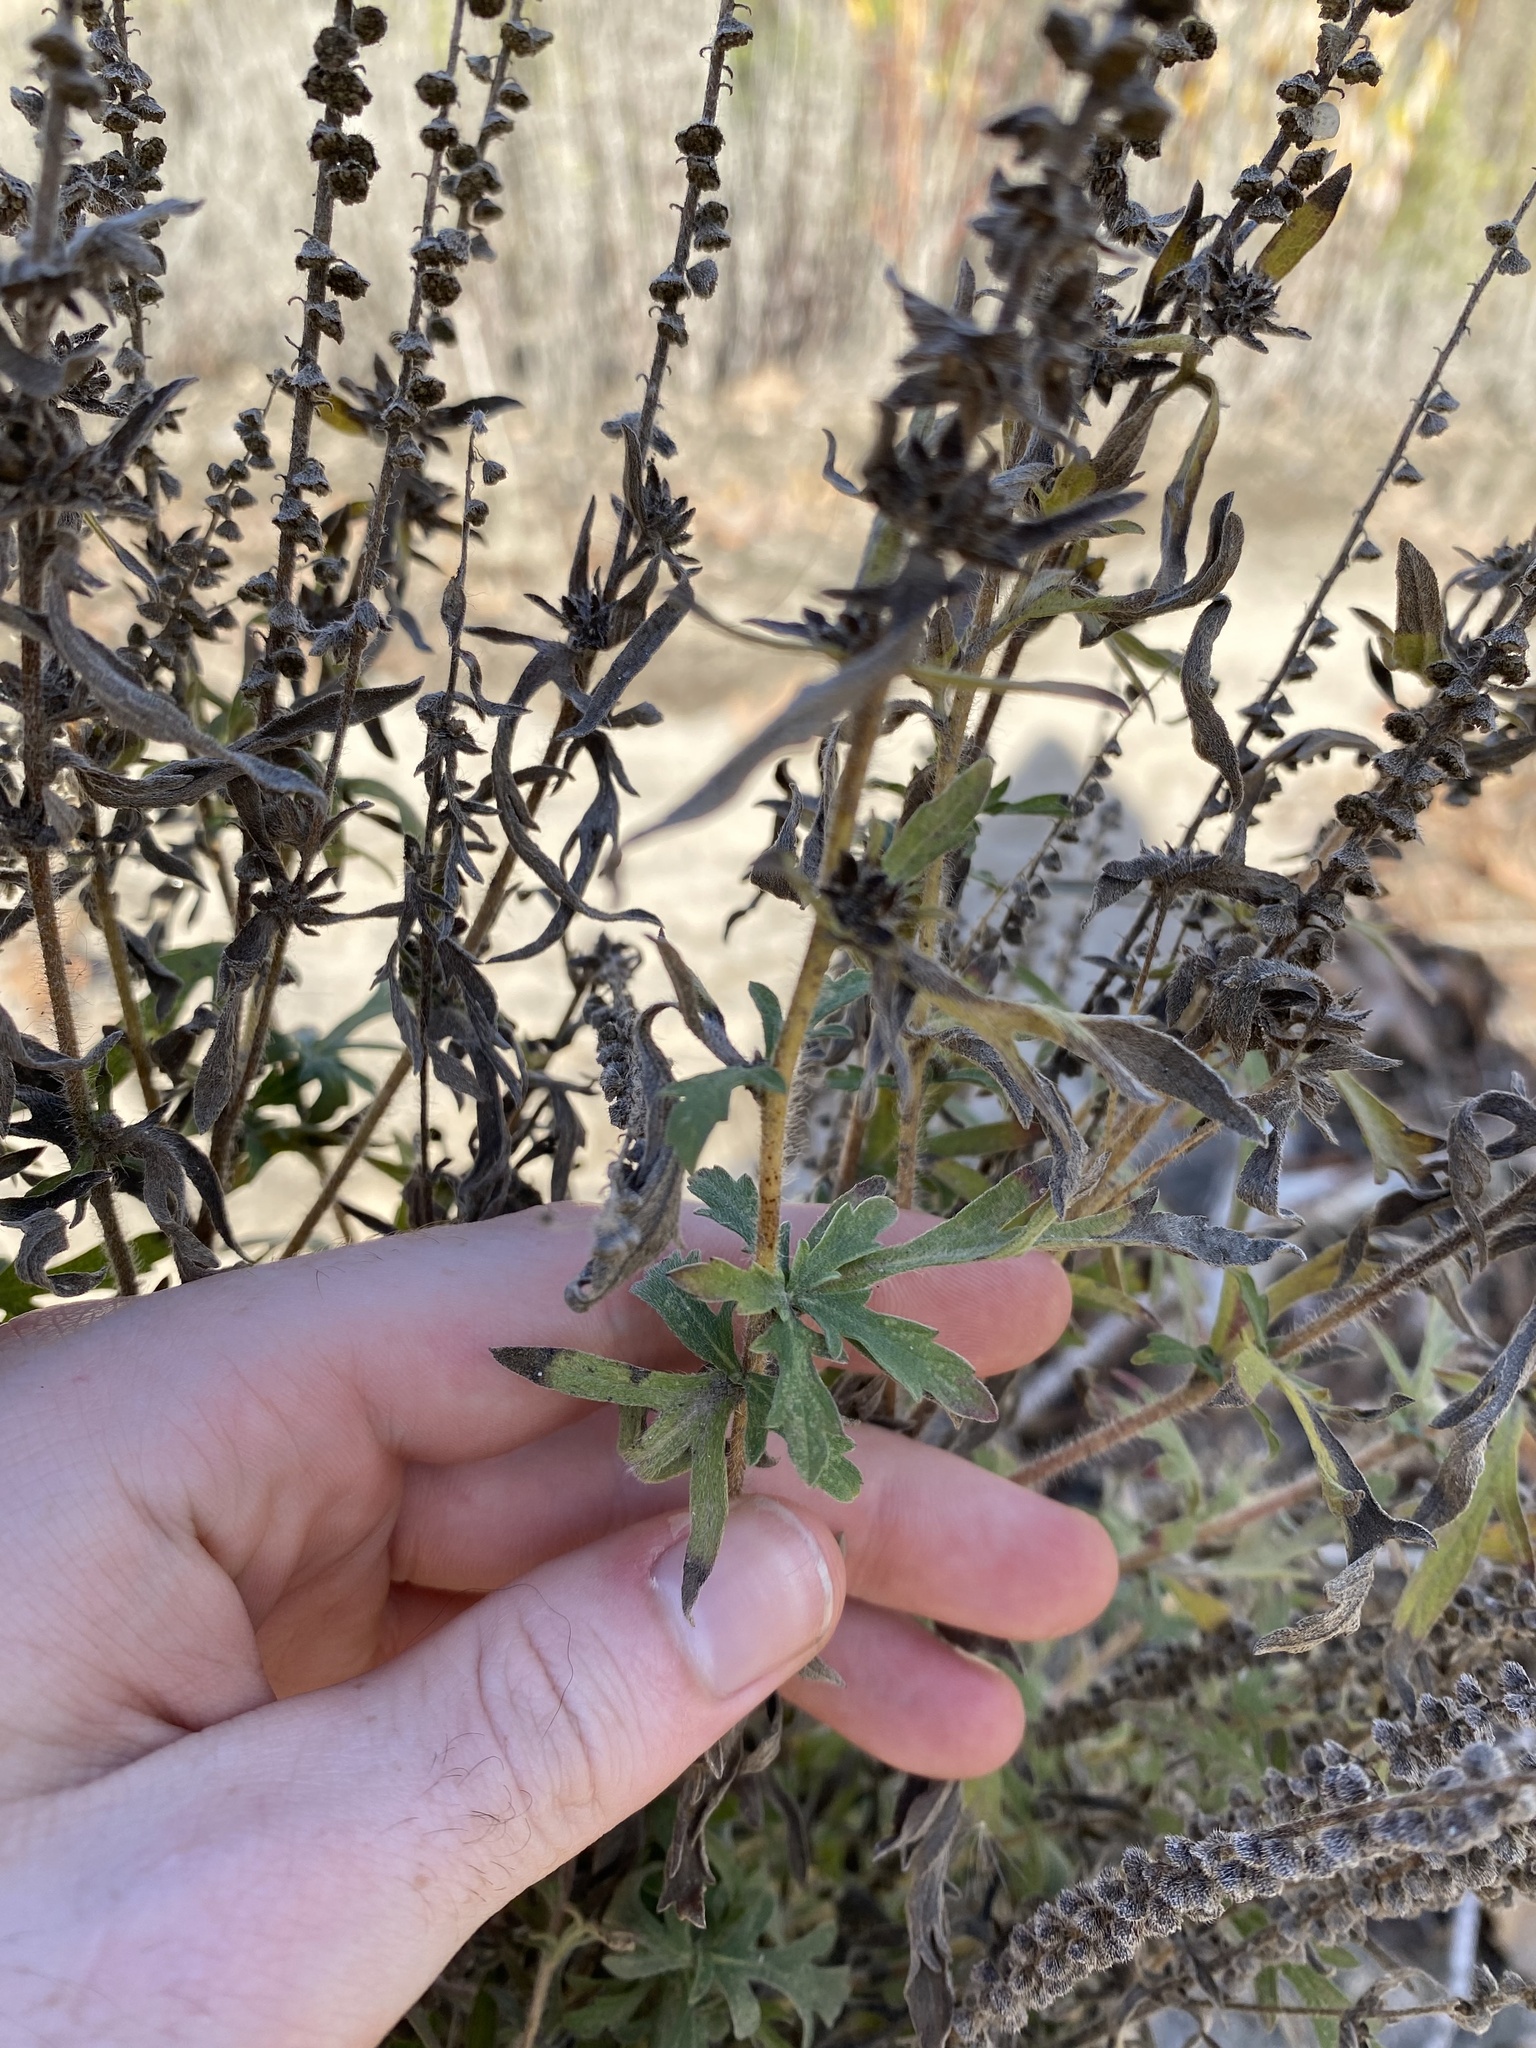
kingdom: Plantae
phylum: Tracheophyta
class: Magnoliopsida
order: Asterales
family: Asteraceae
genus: Ambrosia
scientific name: Ambrosia psilostachya
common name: Perennial ragweed
